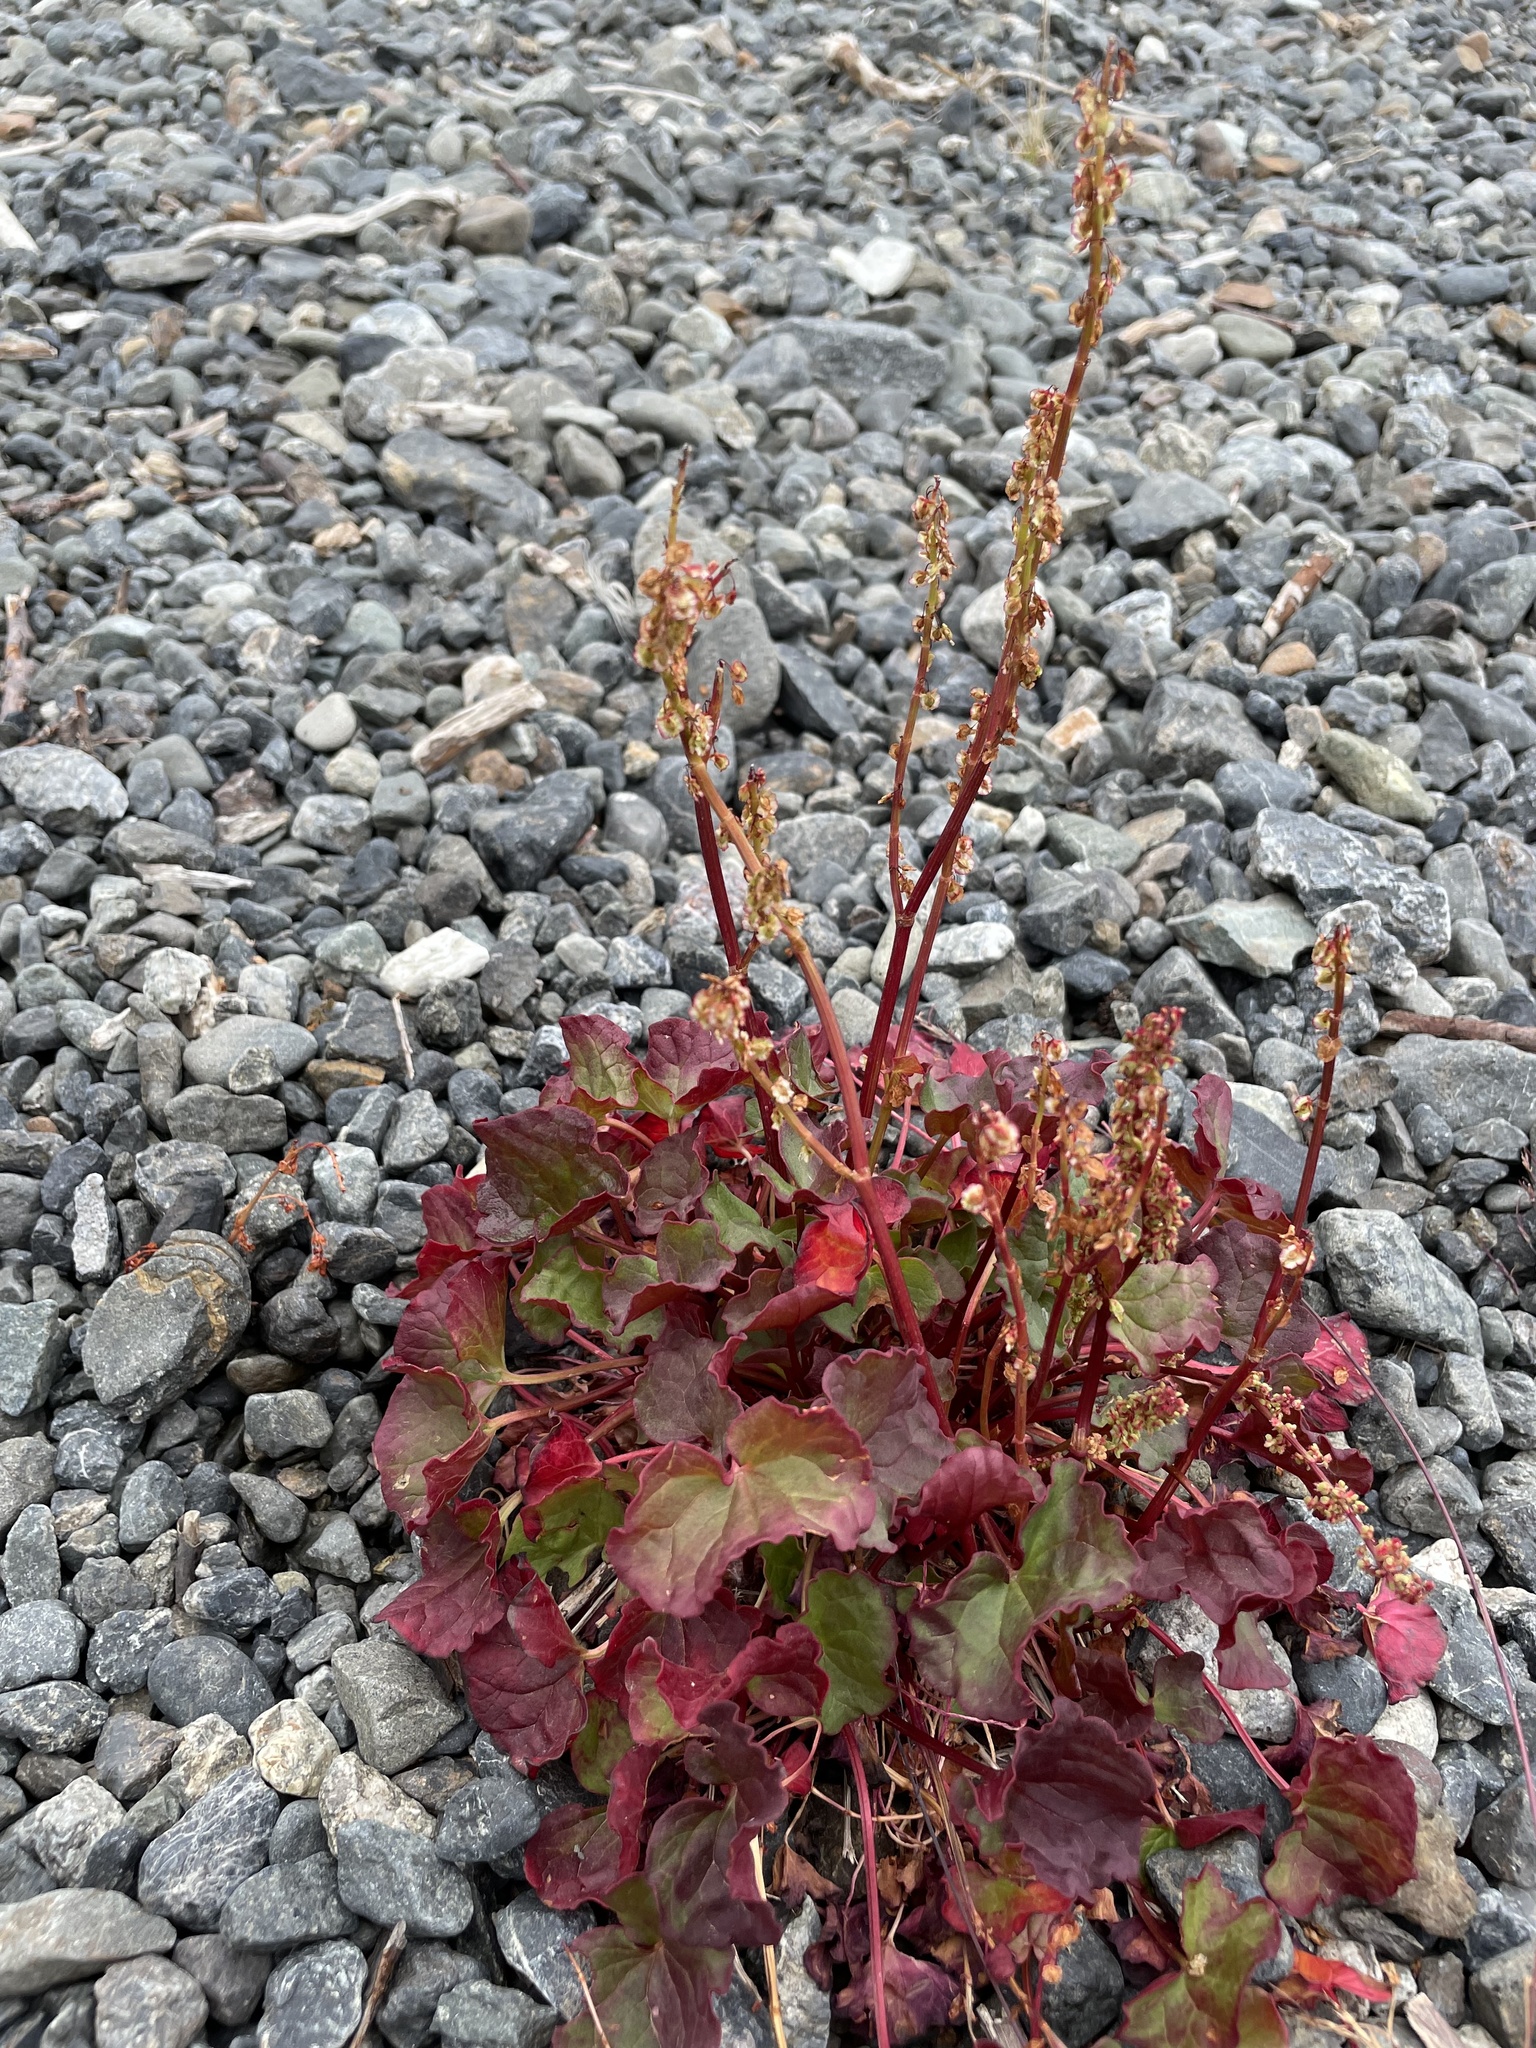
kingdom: Plantae
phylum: Tracheophyta
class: Magnoliopsida
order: Caryophyllales
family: Polygonaceae
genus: Oxyria
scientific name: Oxyria digyna
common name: Alpine mountain-sorrel
